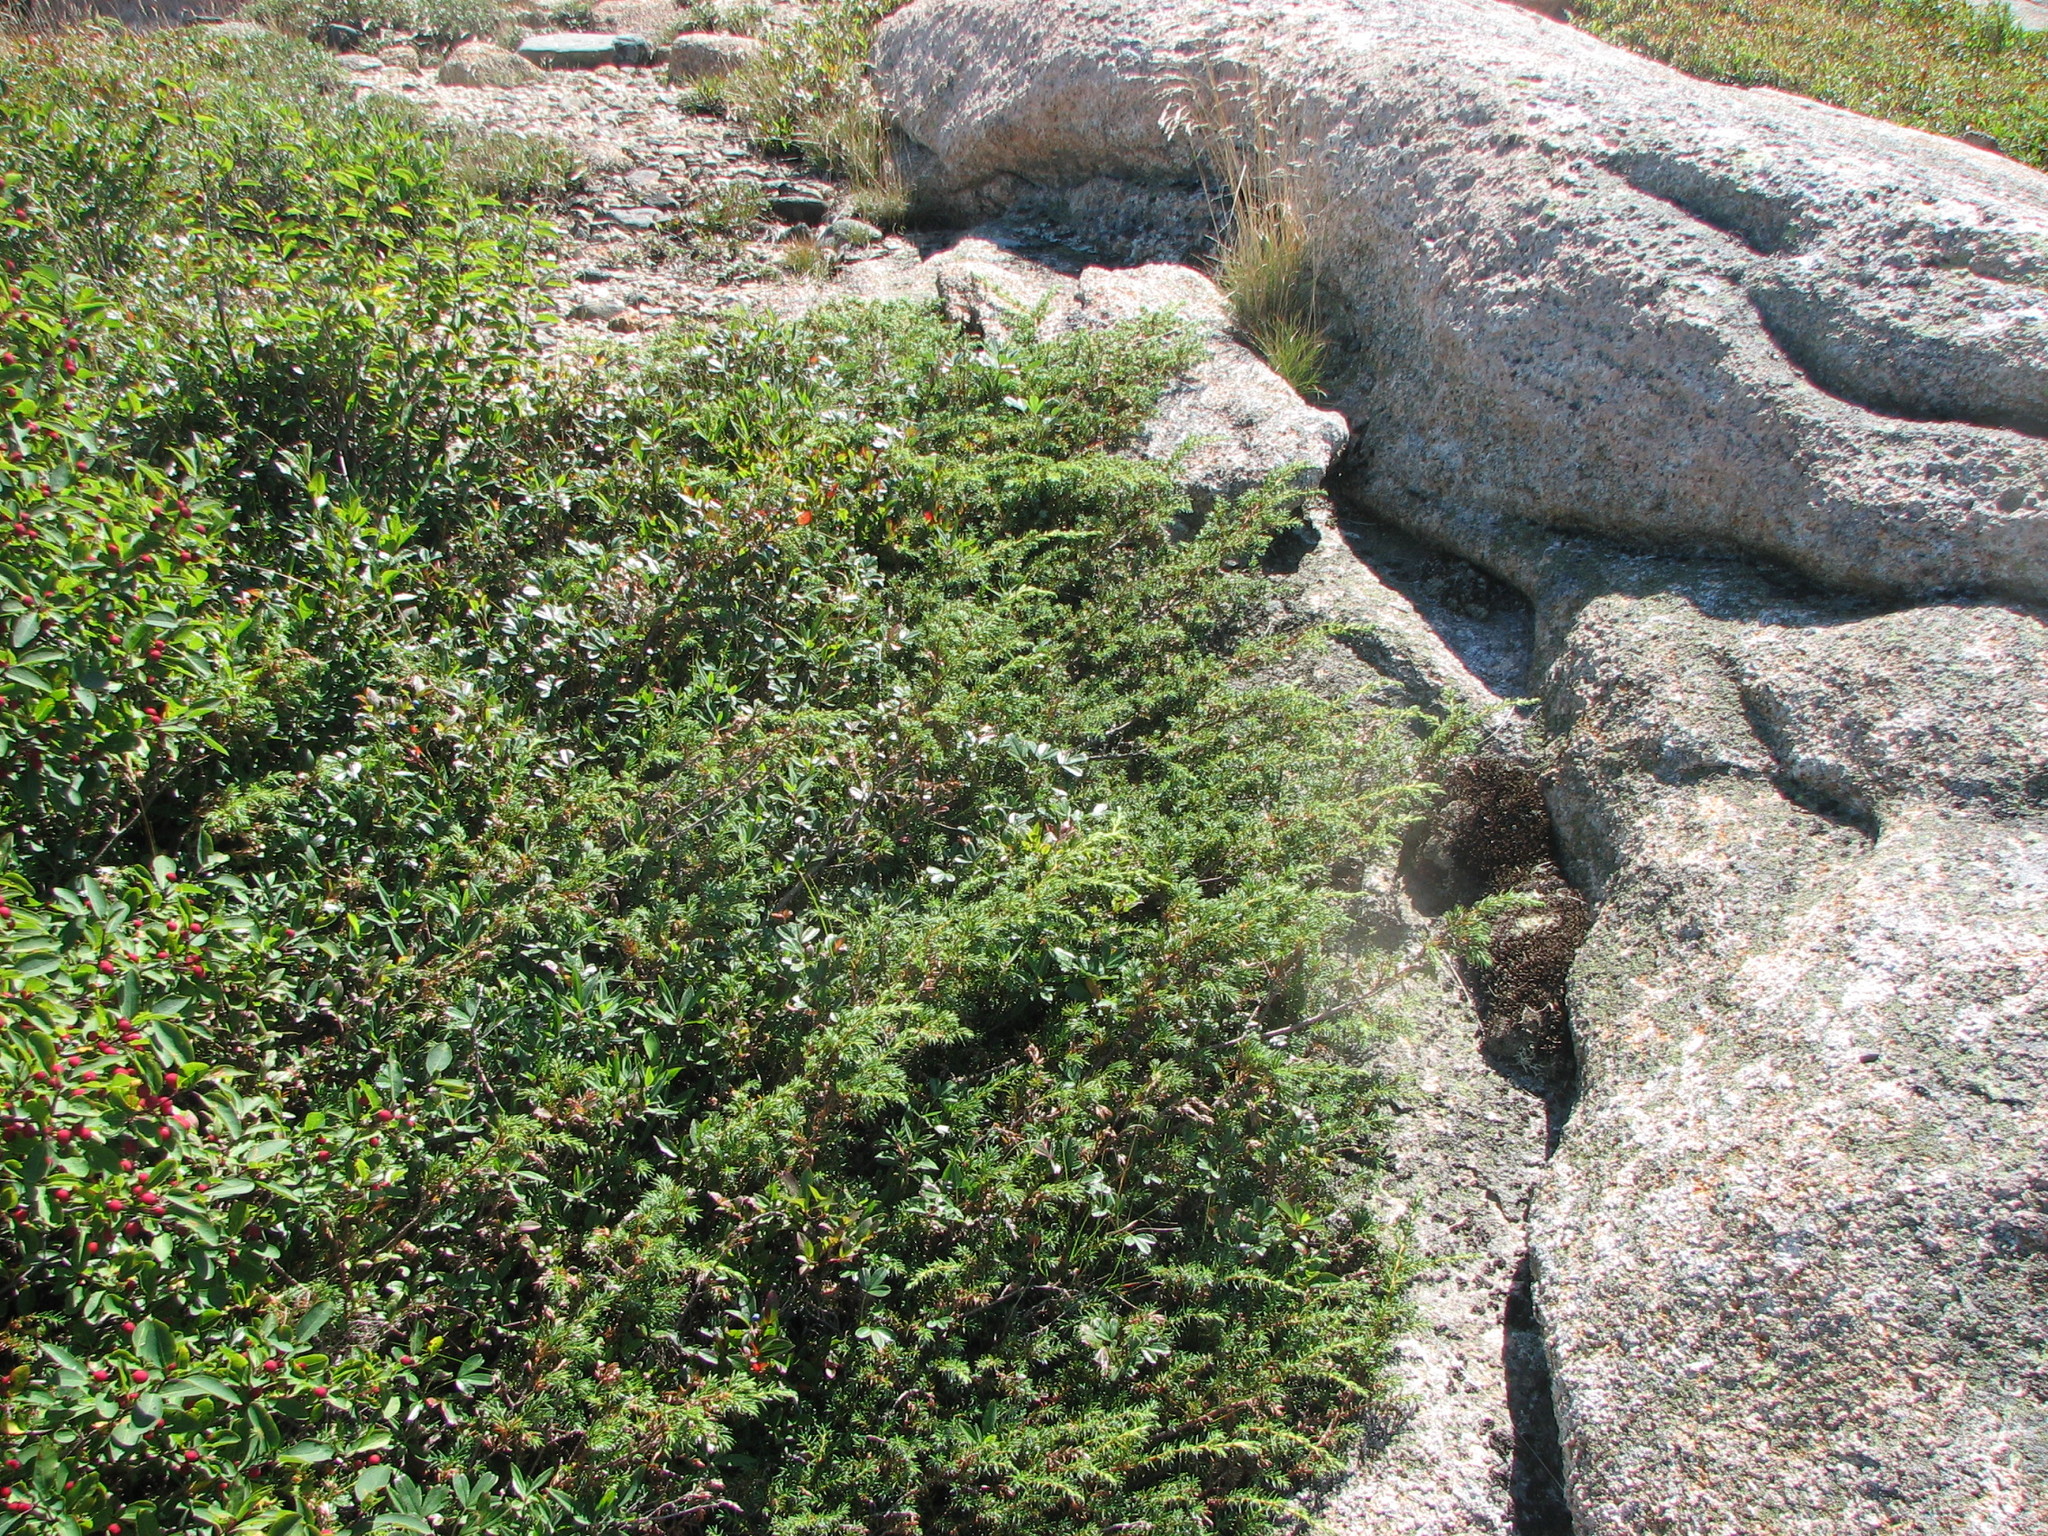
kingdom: Plantae
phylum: Tracheophyta
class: Pinopsida
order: Pinales
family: Cupressaceae
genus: Juniperus
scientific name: Juniperus communis
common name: Common juniper
